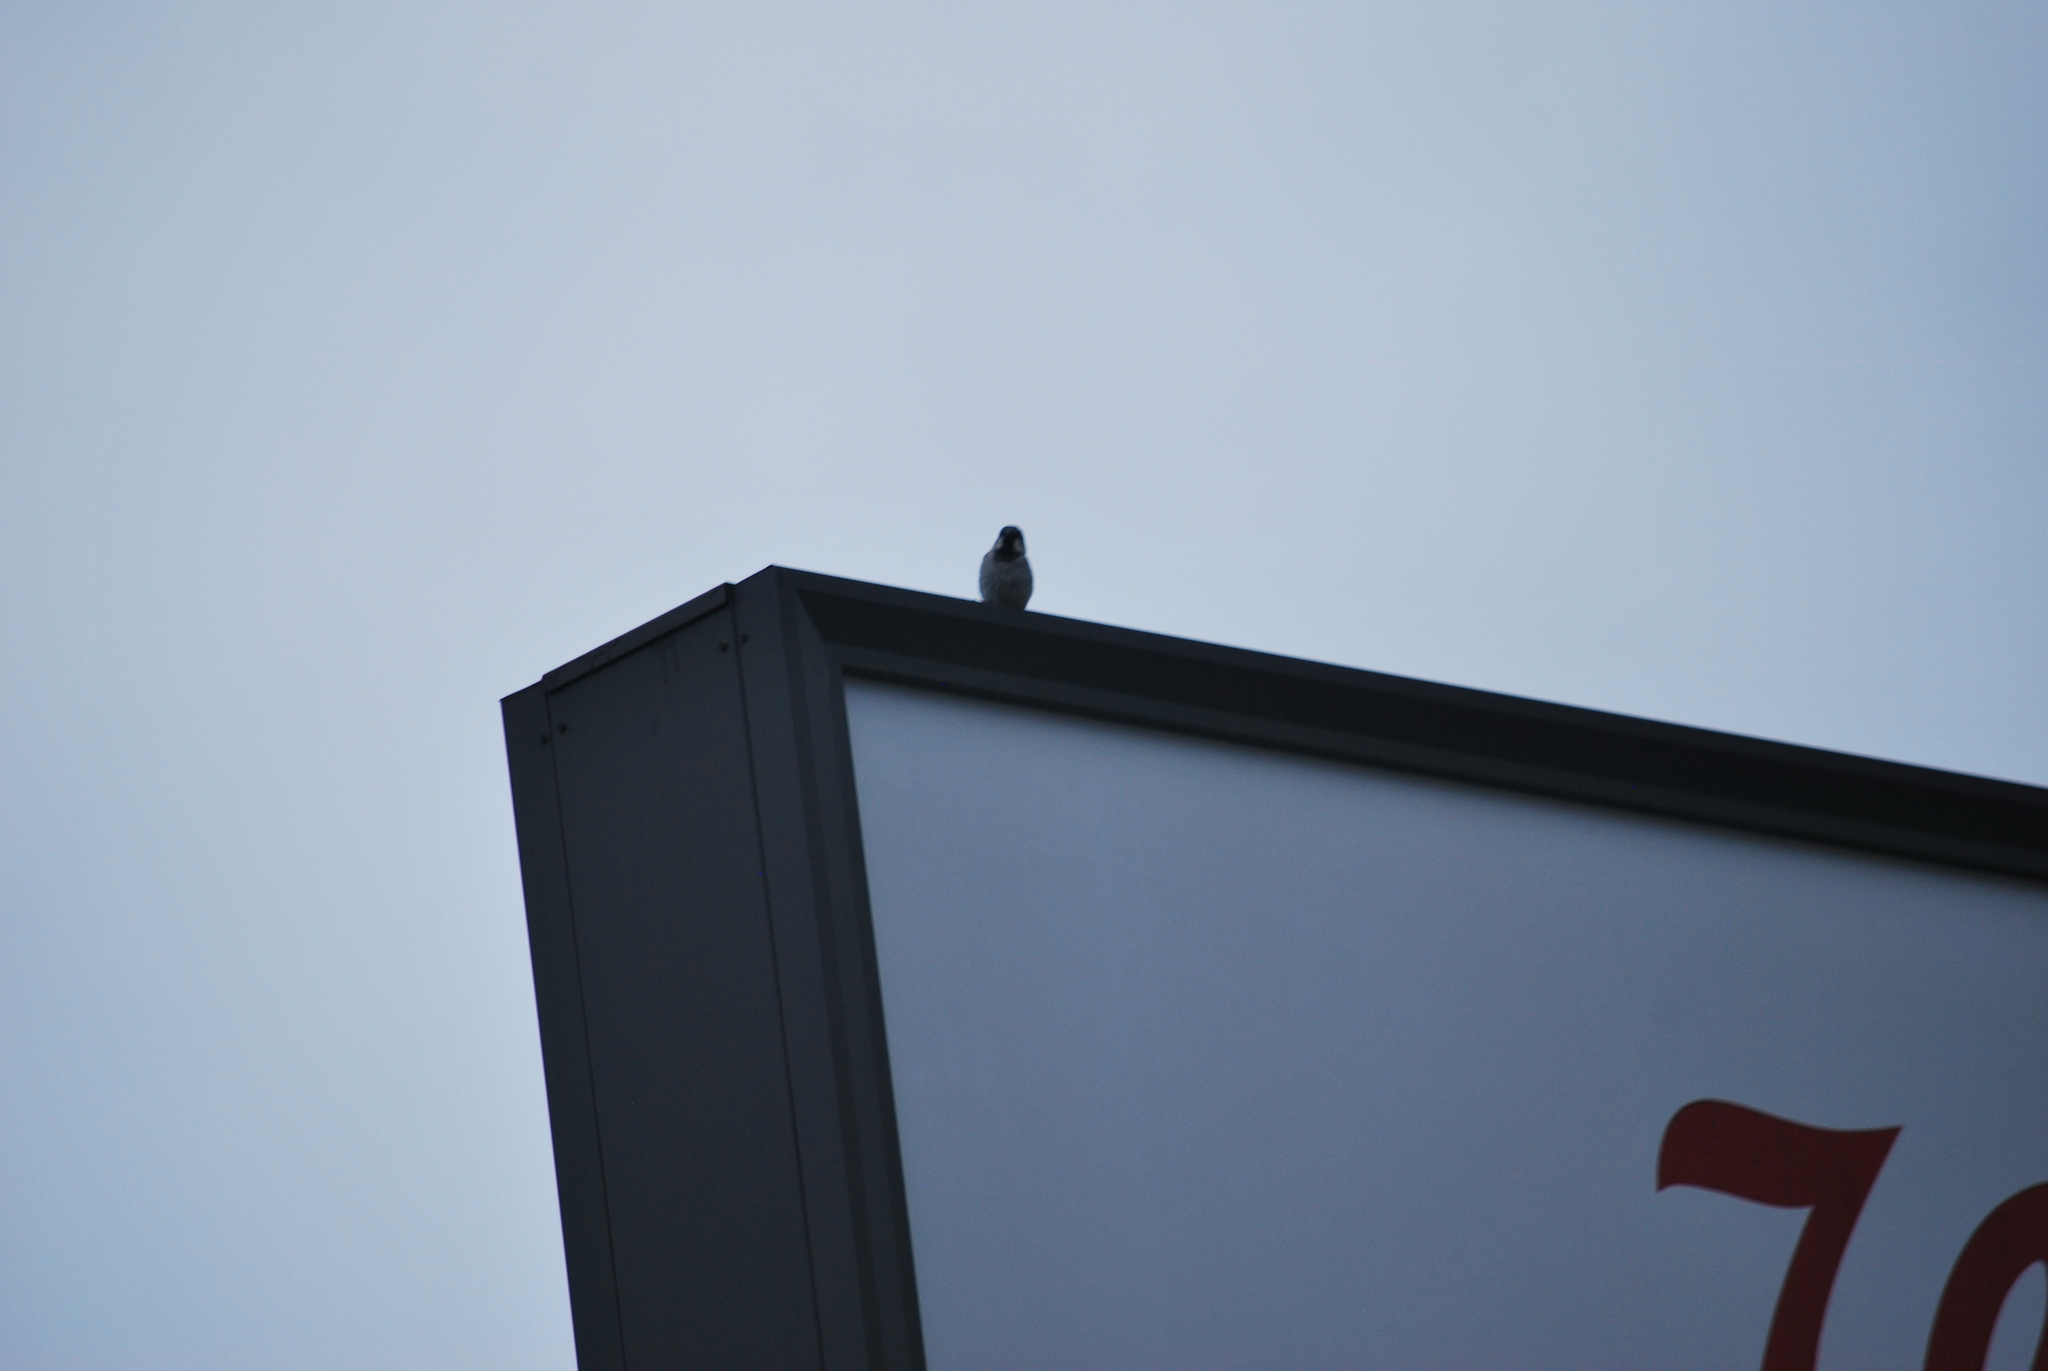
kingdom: Animalia
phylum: Chordata
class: Aves
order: Passeriformes
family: Passeridae
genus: Passer
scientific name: Passer domesticus
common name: House sparrow
